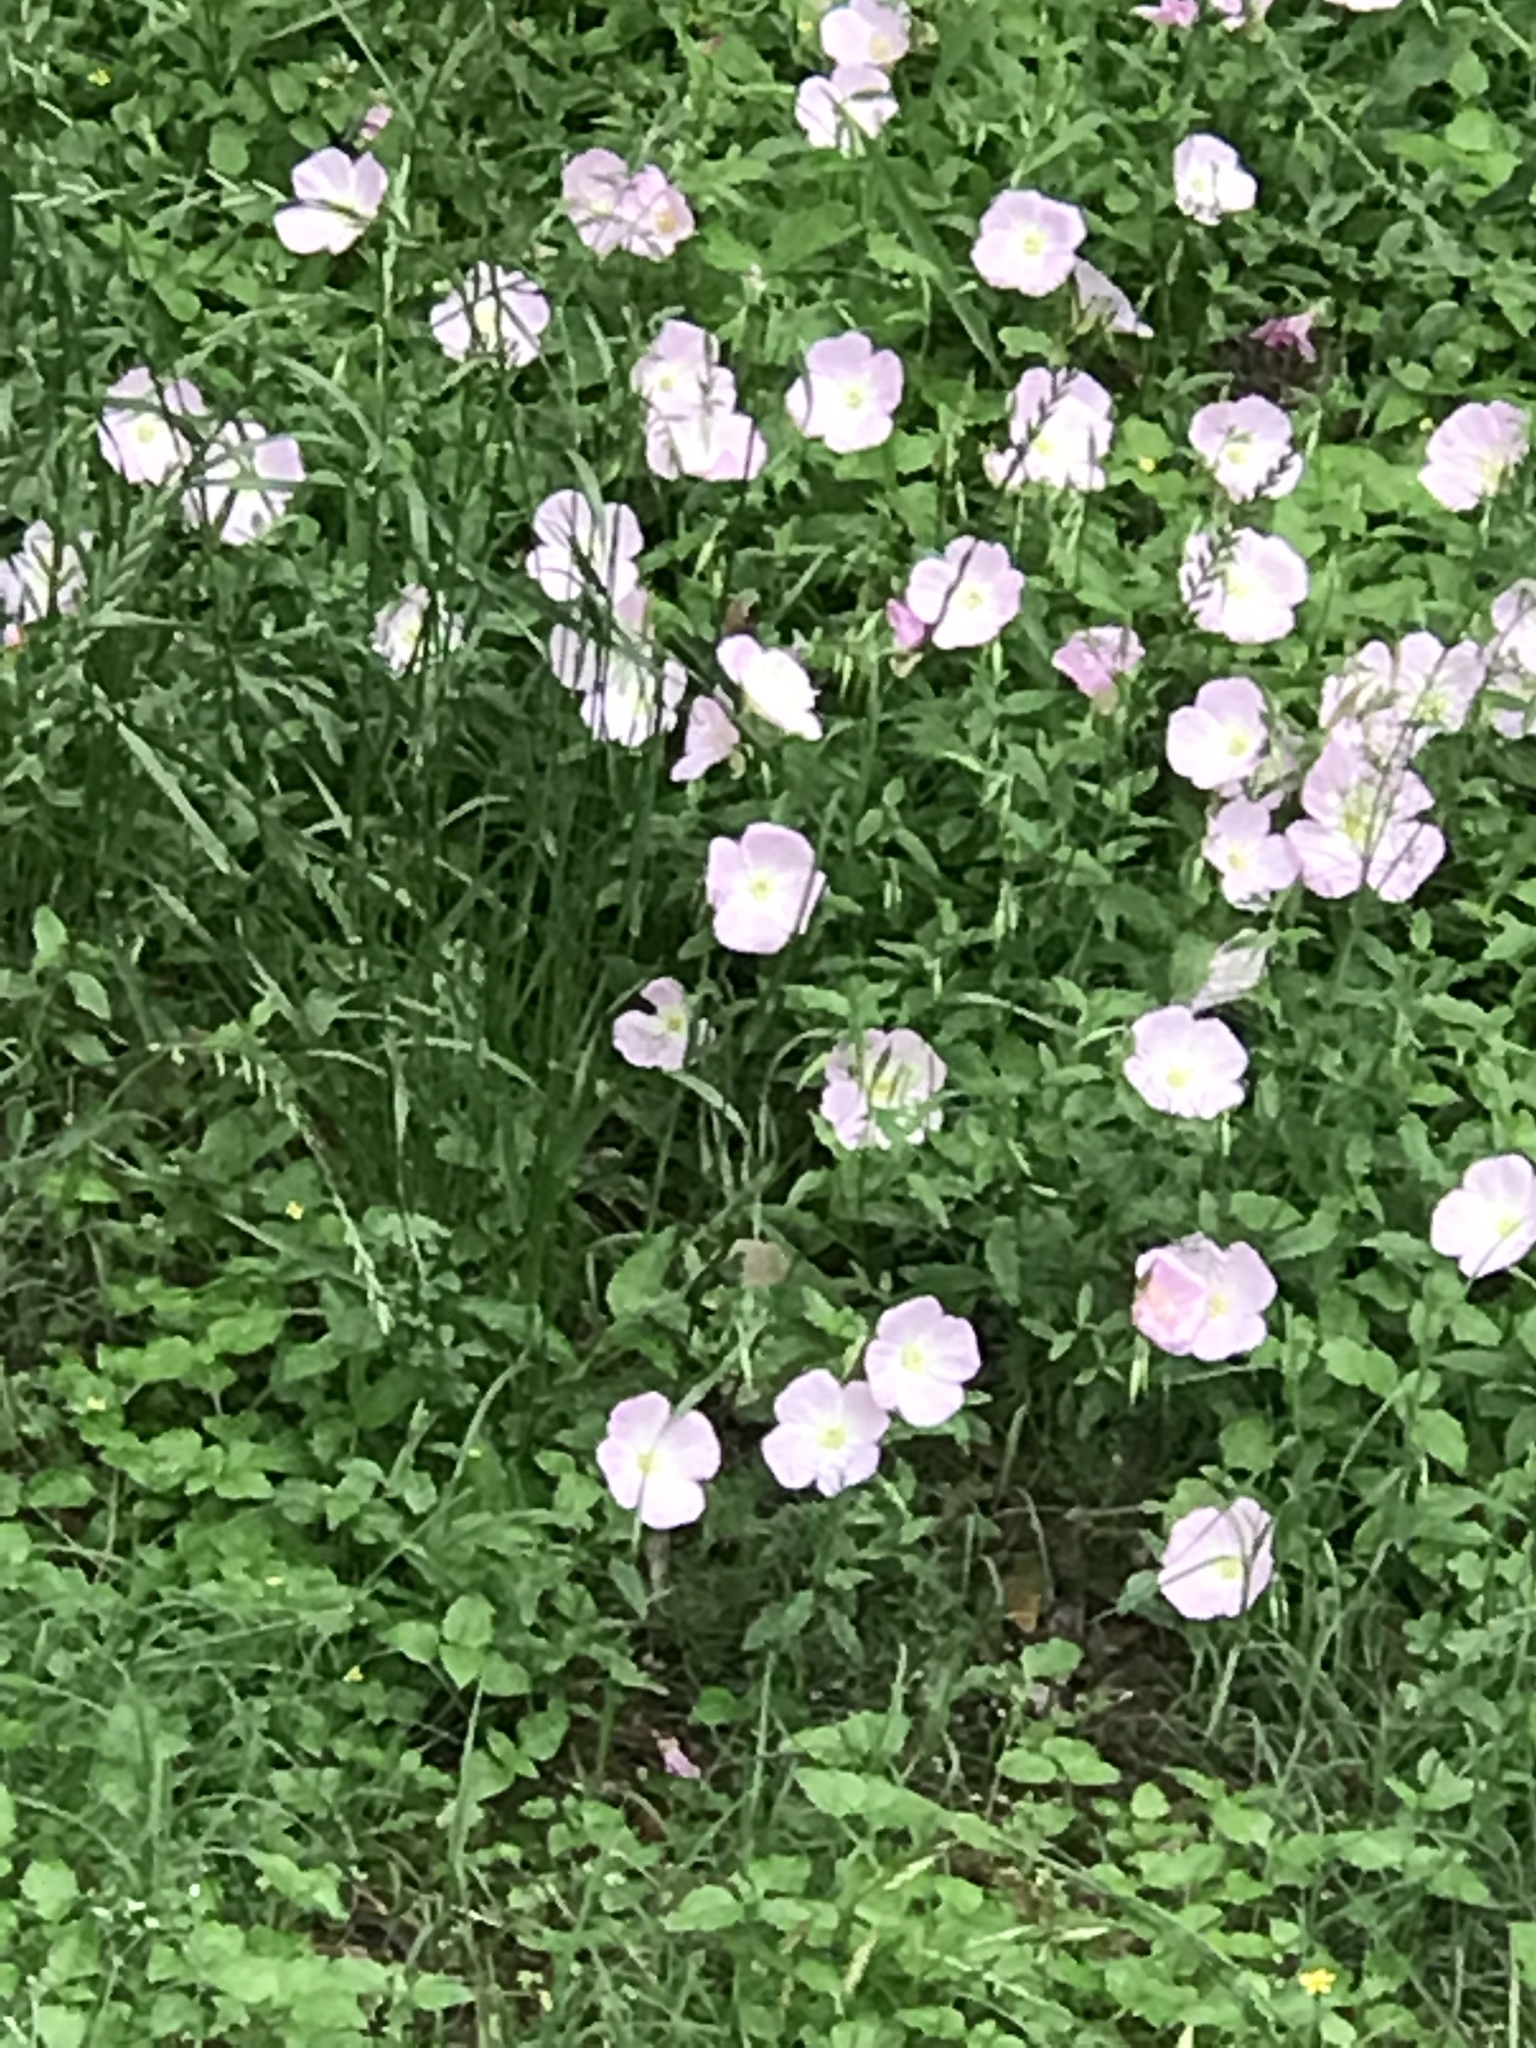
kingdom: Plantae
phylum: Tracheophyta
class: Magnoliopsida
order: Myrtales
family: Onagraceae
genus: Oenothera
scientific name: Oenothera speciosa
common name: White evening-primrose
